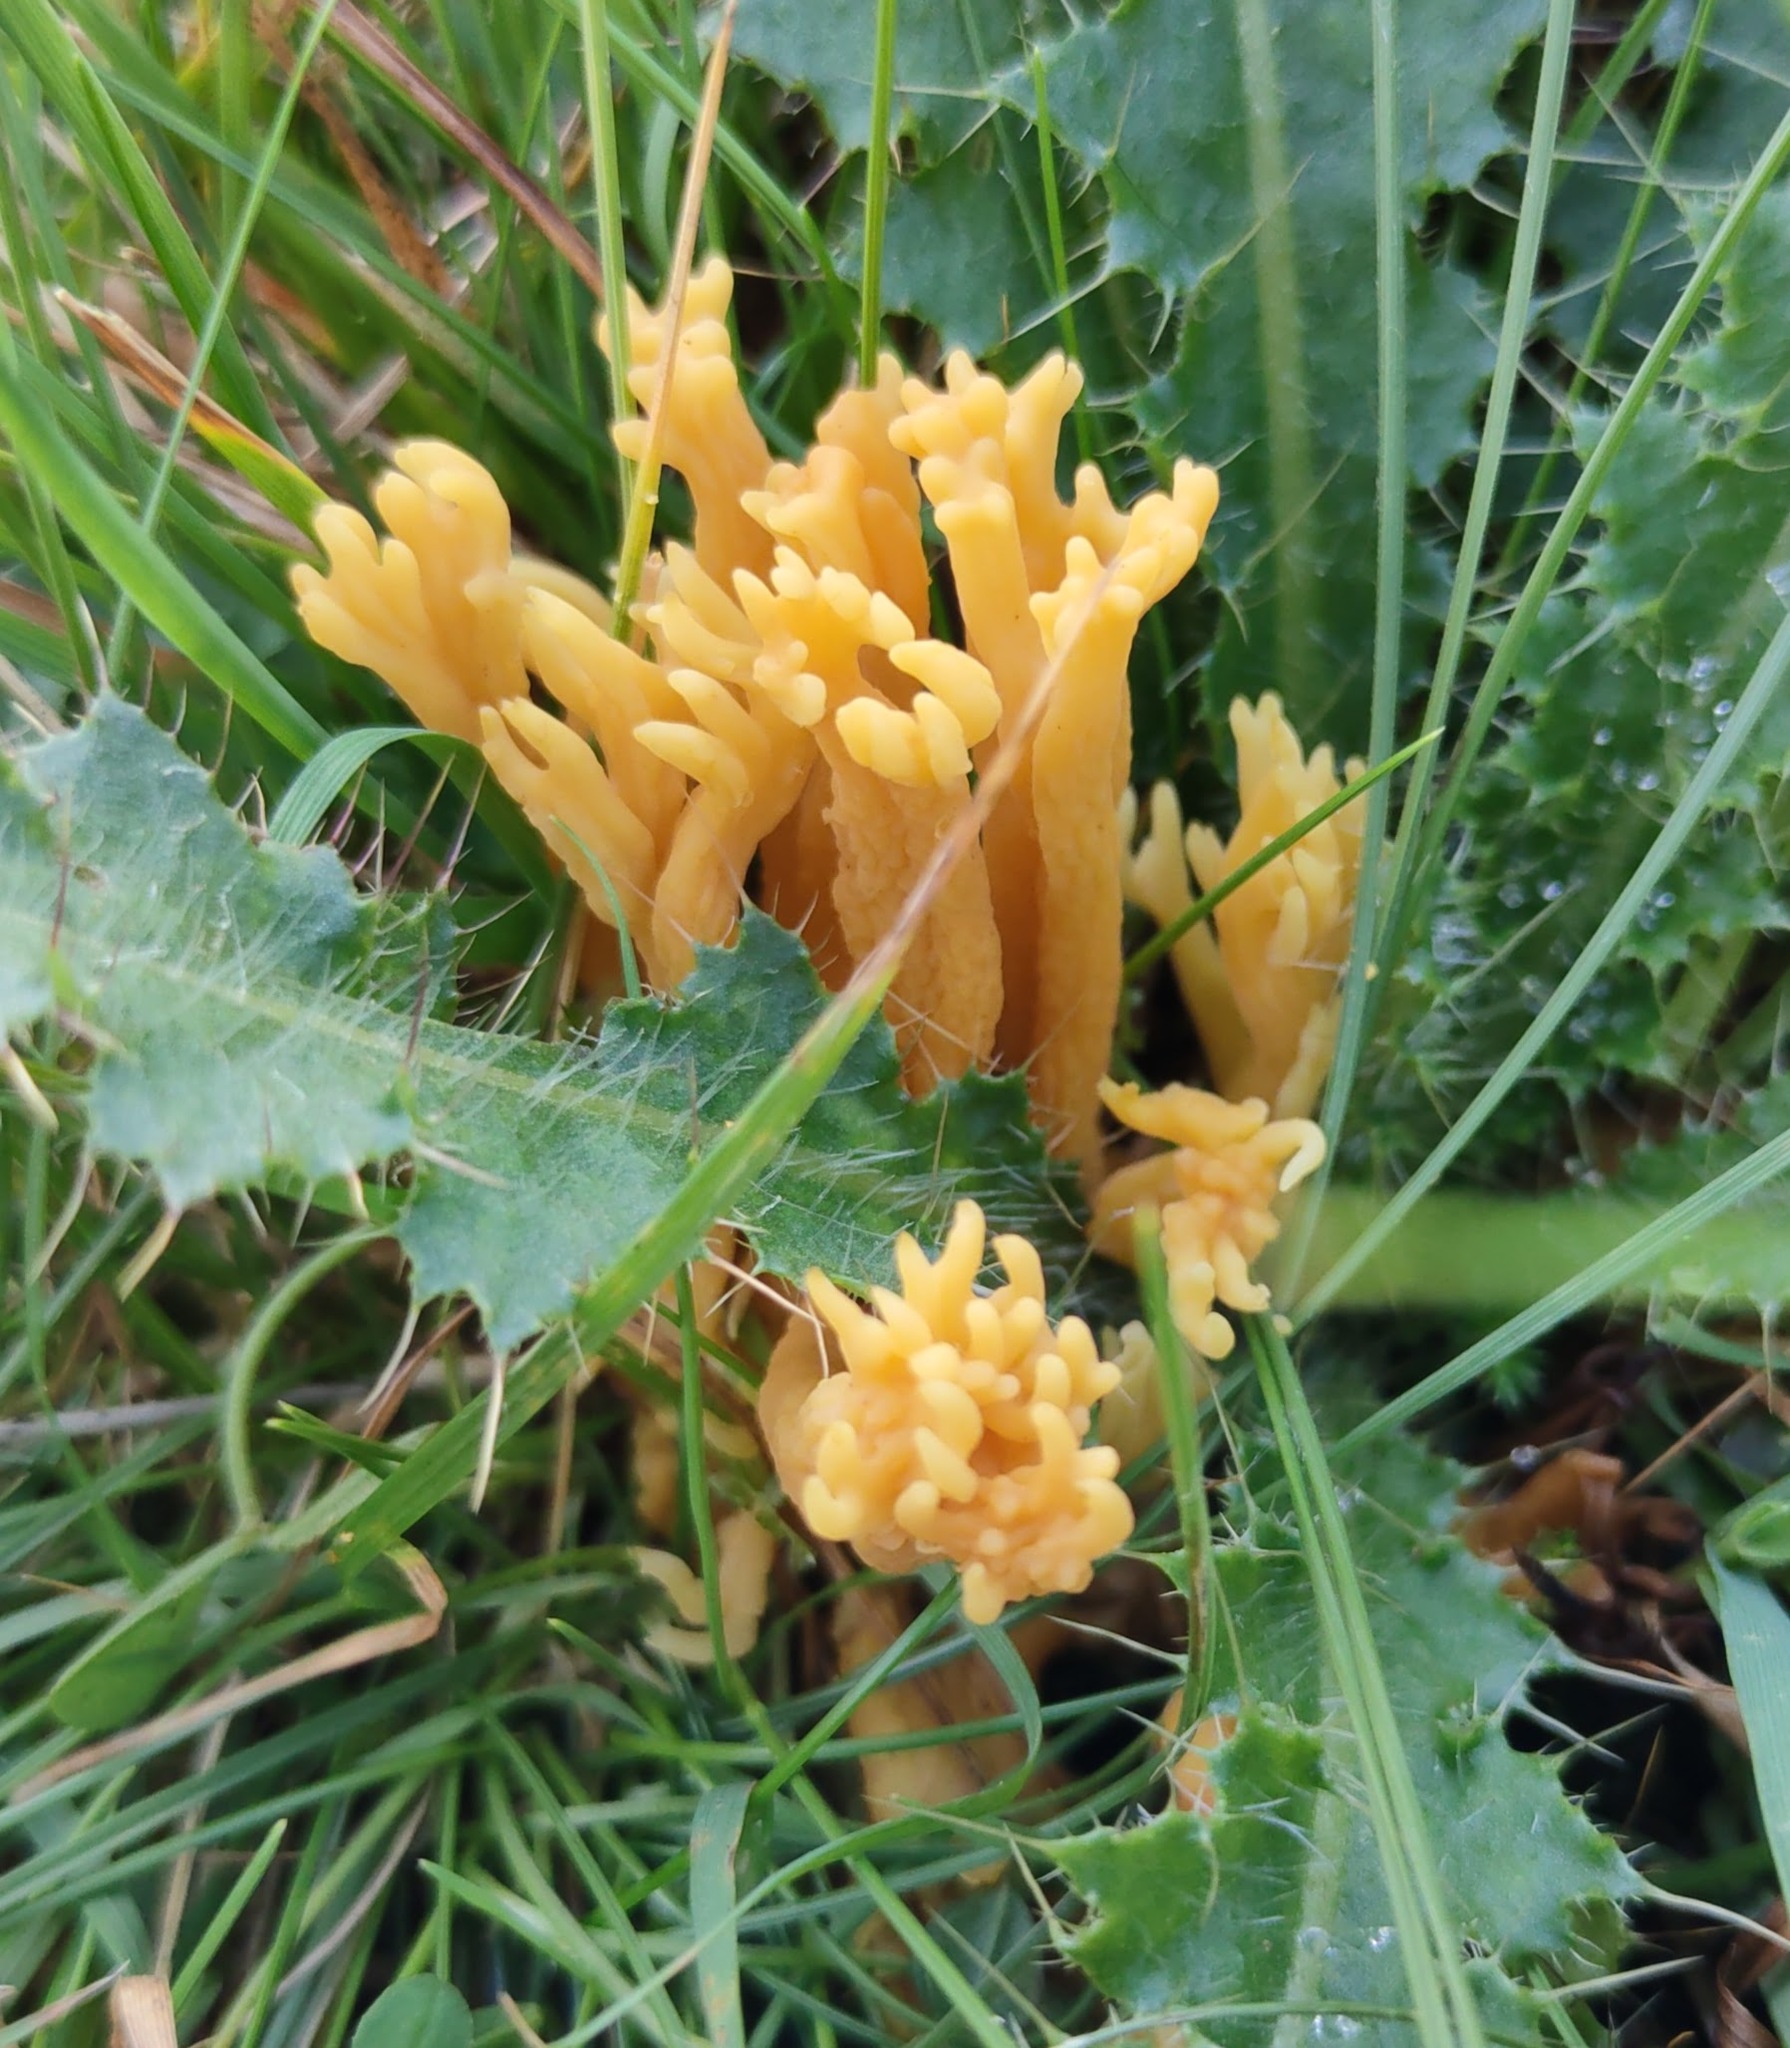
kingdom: Fungi
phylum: Basidiomycota
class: Agaricomycetes
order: Agaricales
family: Clavariaceae
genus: Clavulinopsis
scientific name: Clavulinopsis corniculata
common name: Meadow coral
